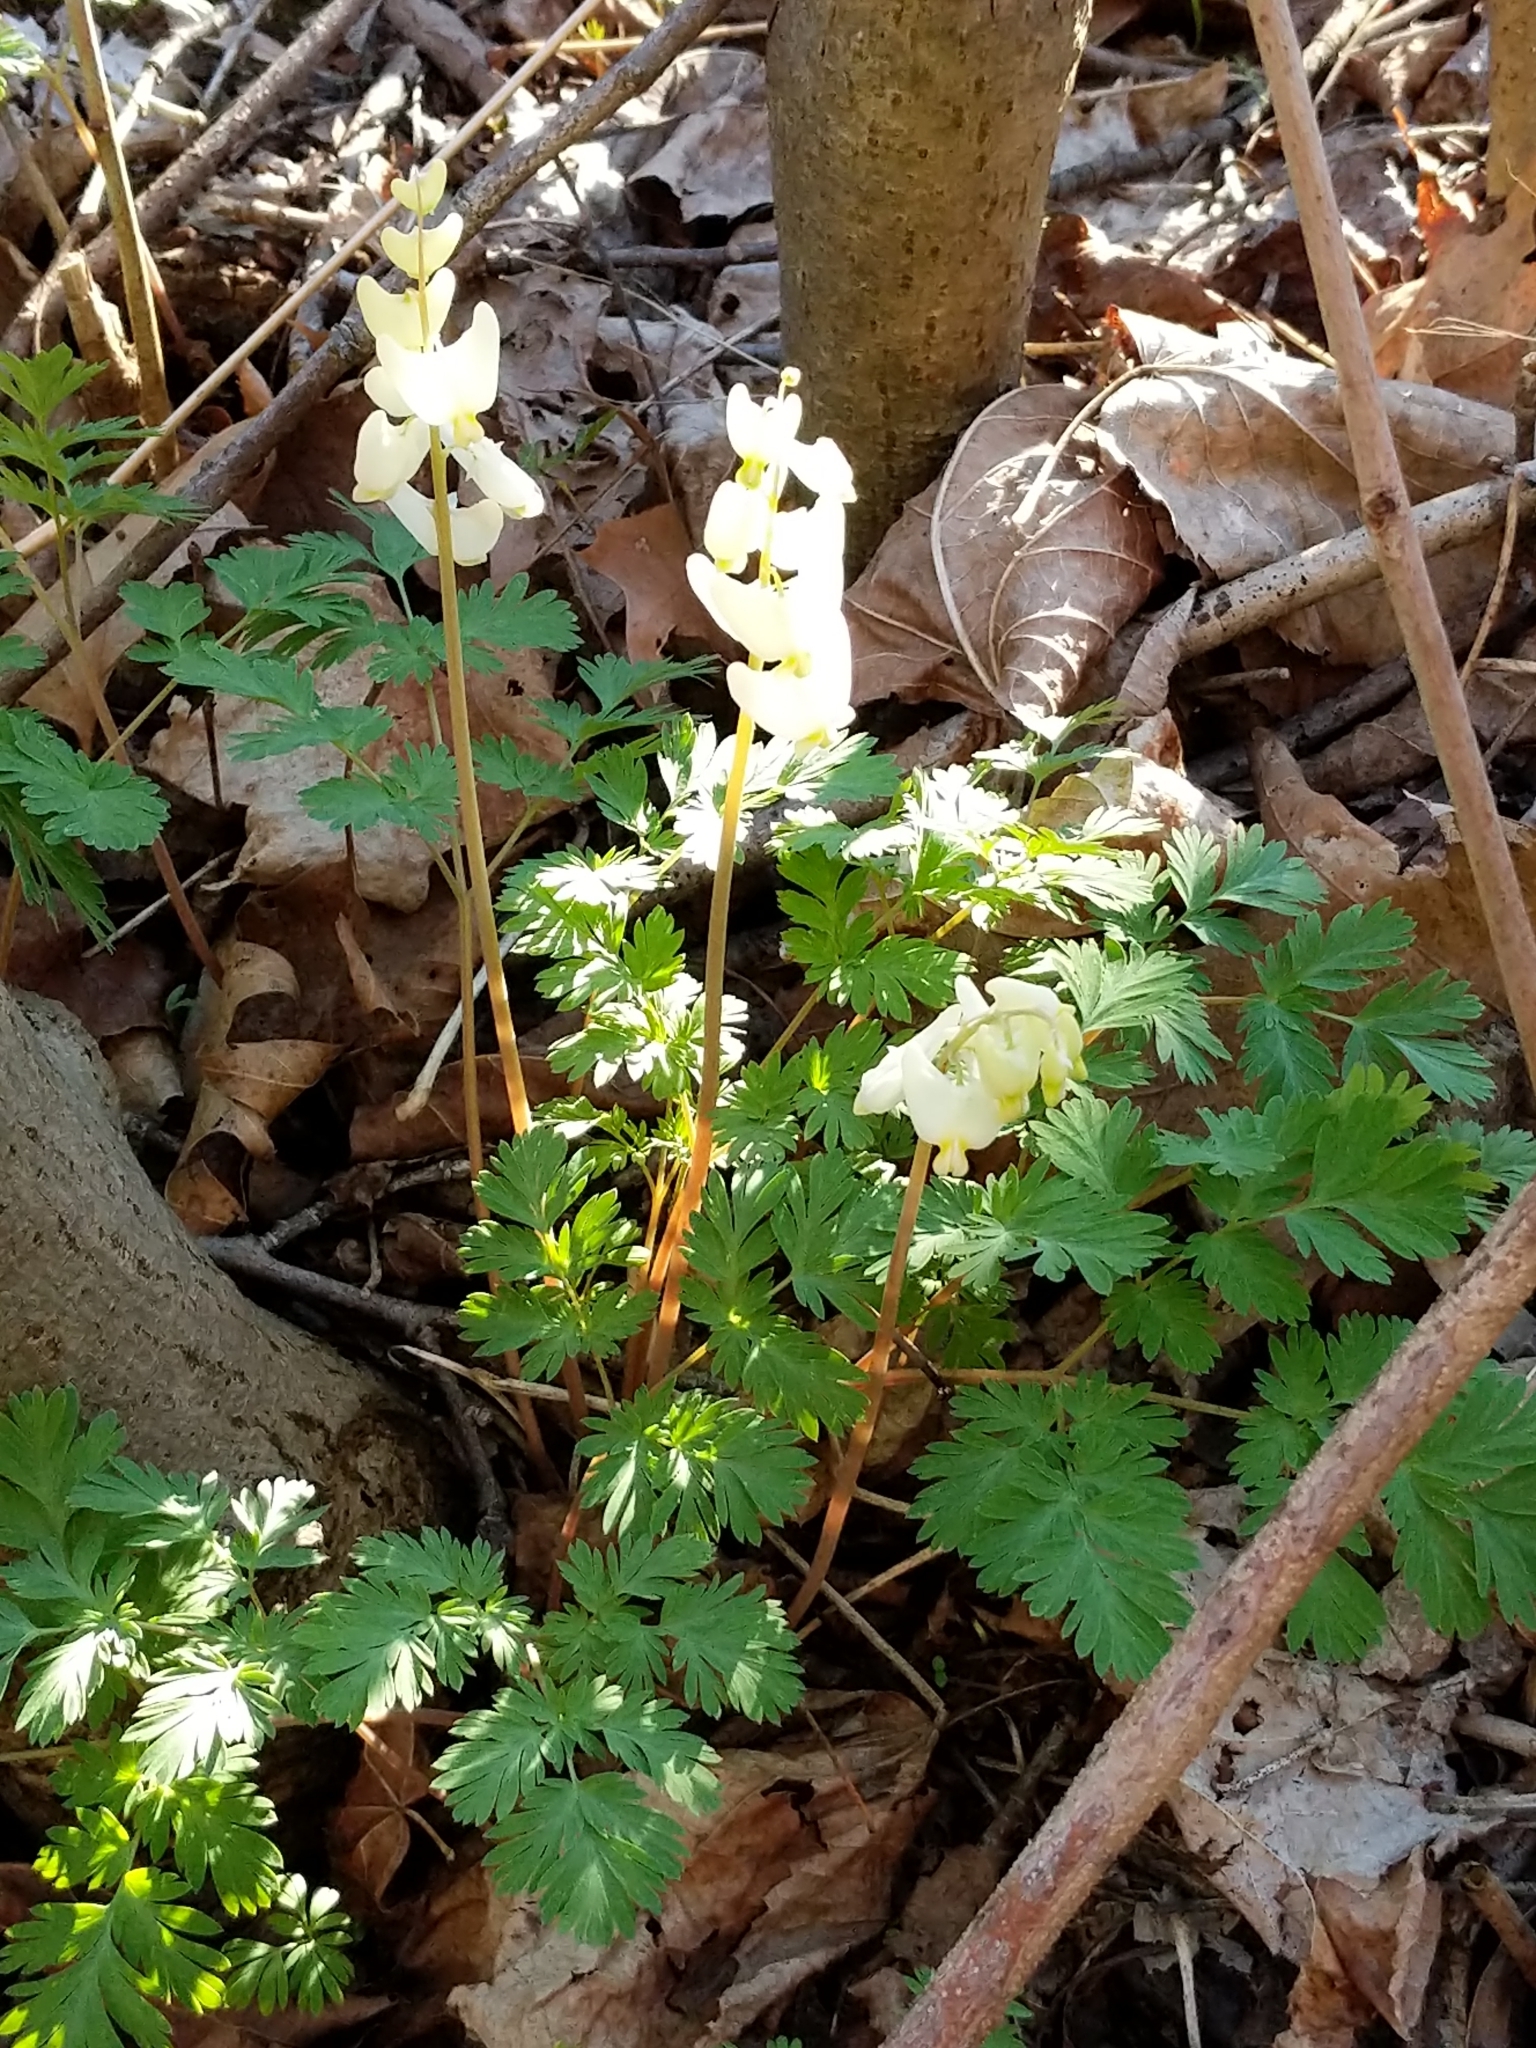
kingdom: Plantae
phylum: Tracheophyta
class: Magnoliopsida
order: Ranunculales
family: Papaveraceae
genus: Dicentra
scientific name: Dicentra cucullaria
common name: Dutchman's breeches
